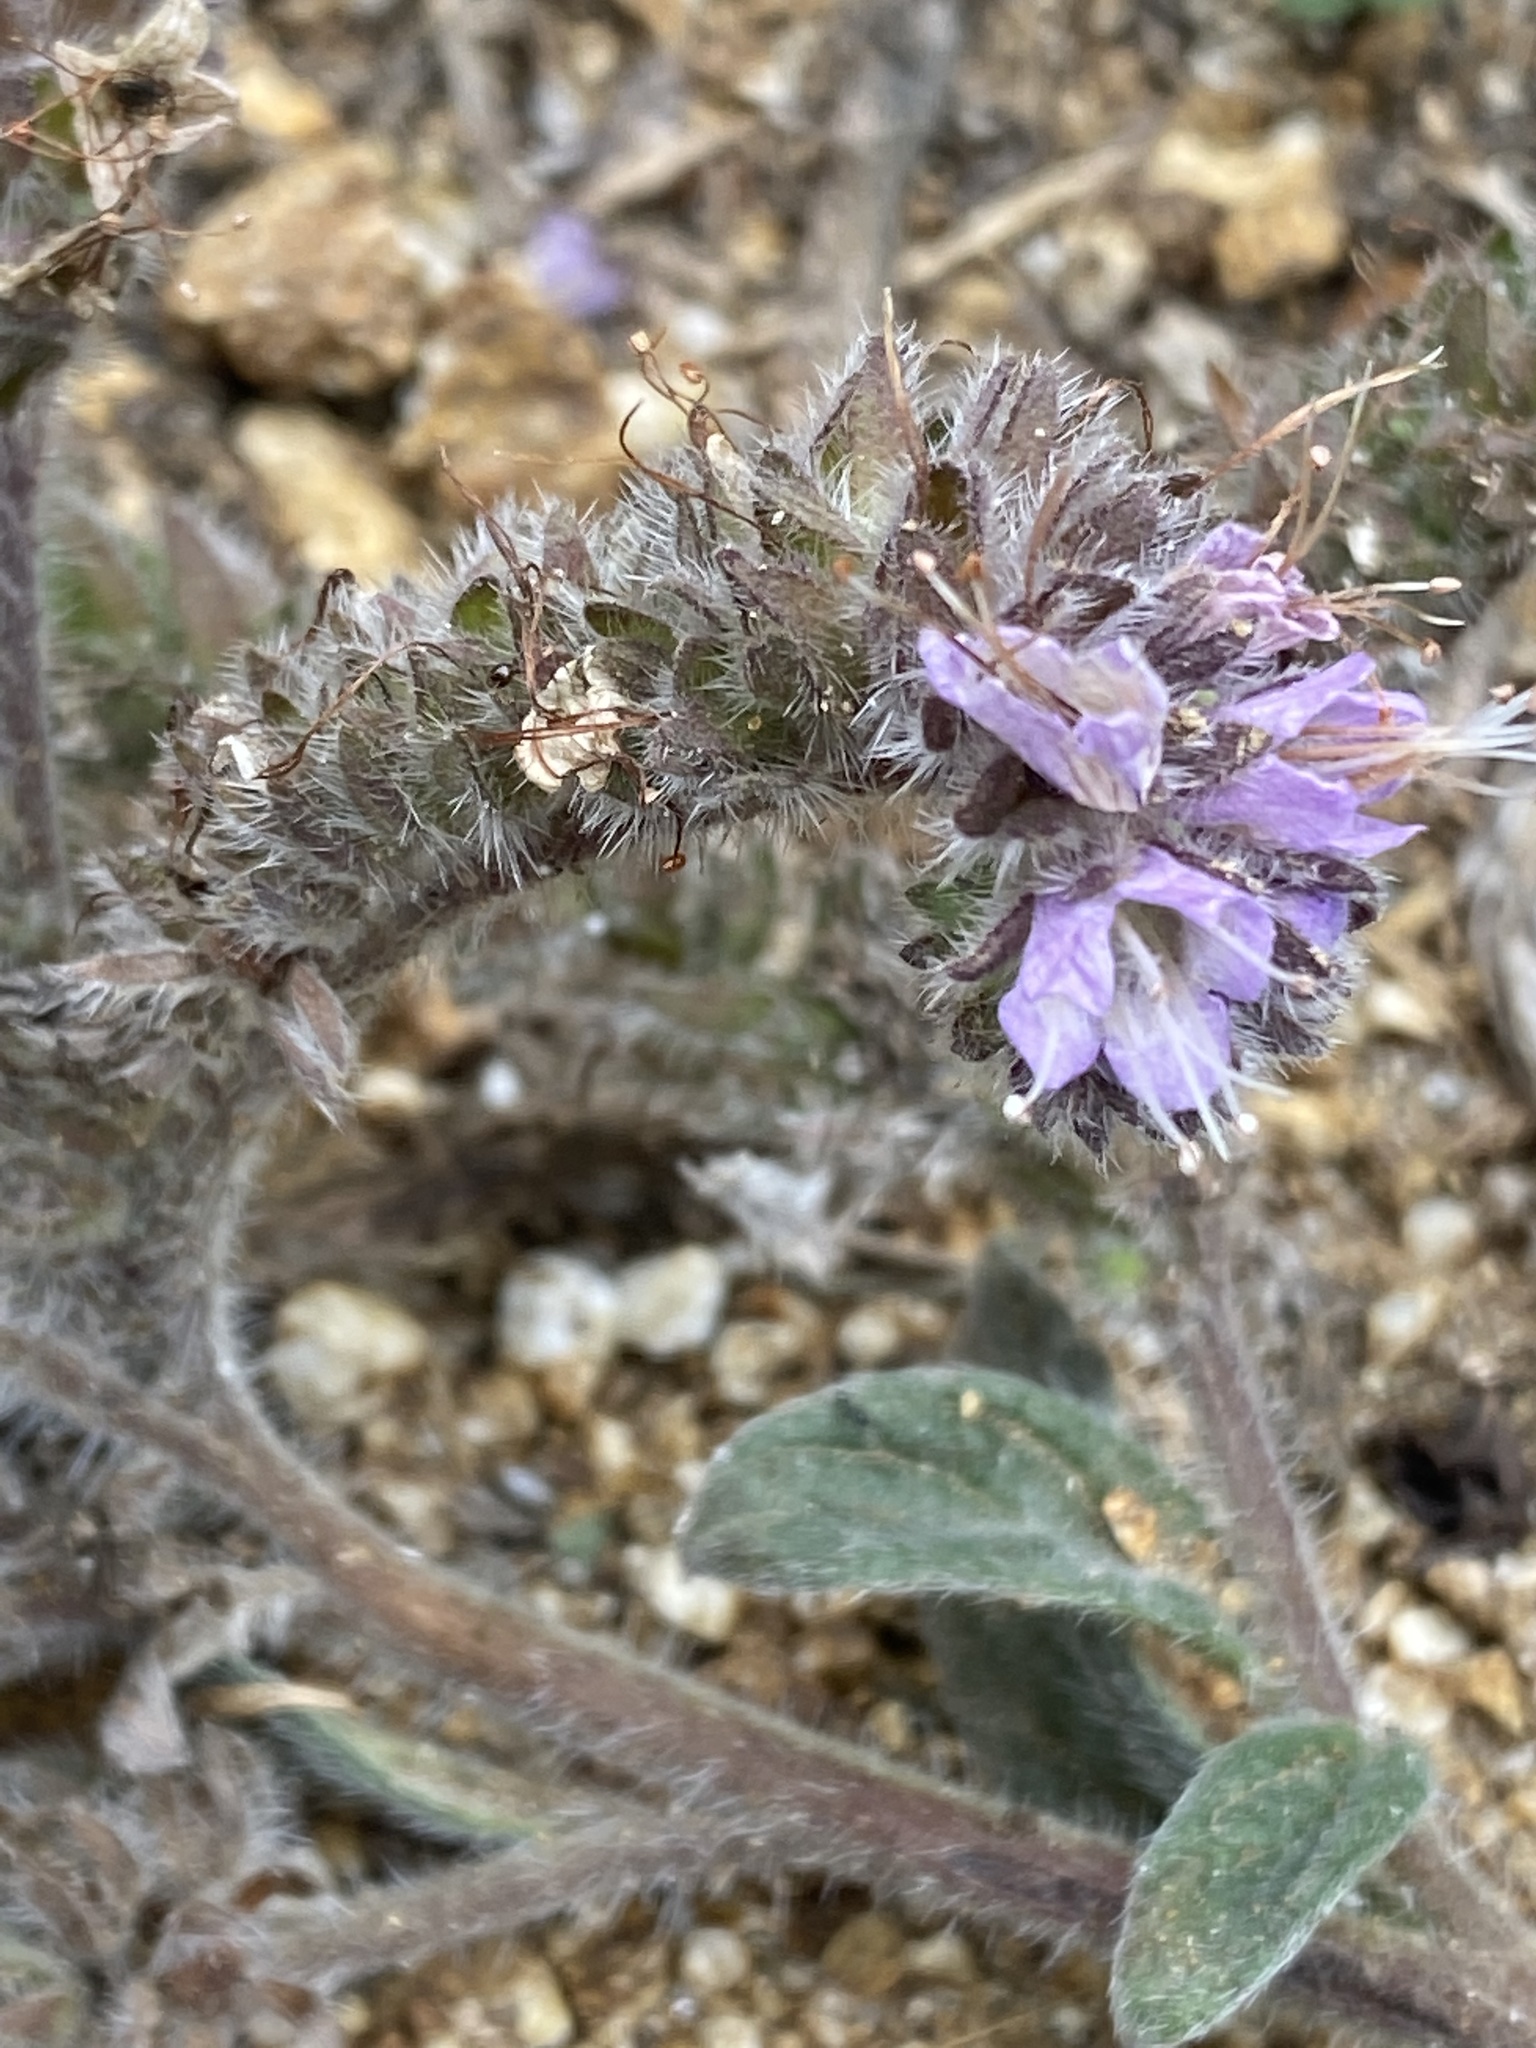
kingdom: Plantae
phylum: Tracheophyta
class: Magnoliopsida
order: Boraginales
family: Hydrophyllaceae
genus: Phacelia
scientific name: Phacelia californica
